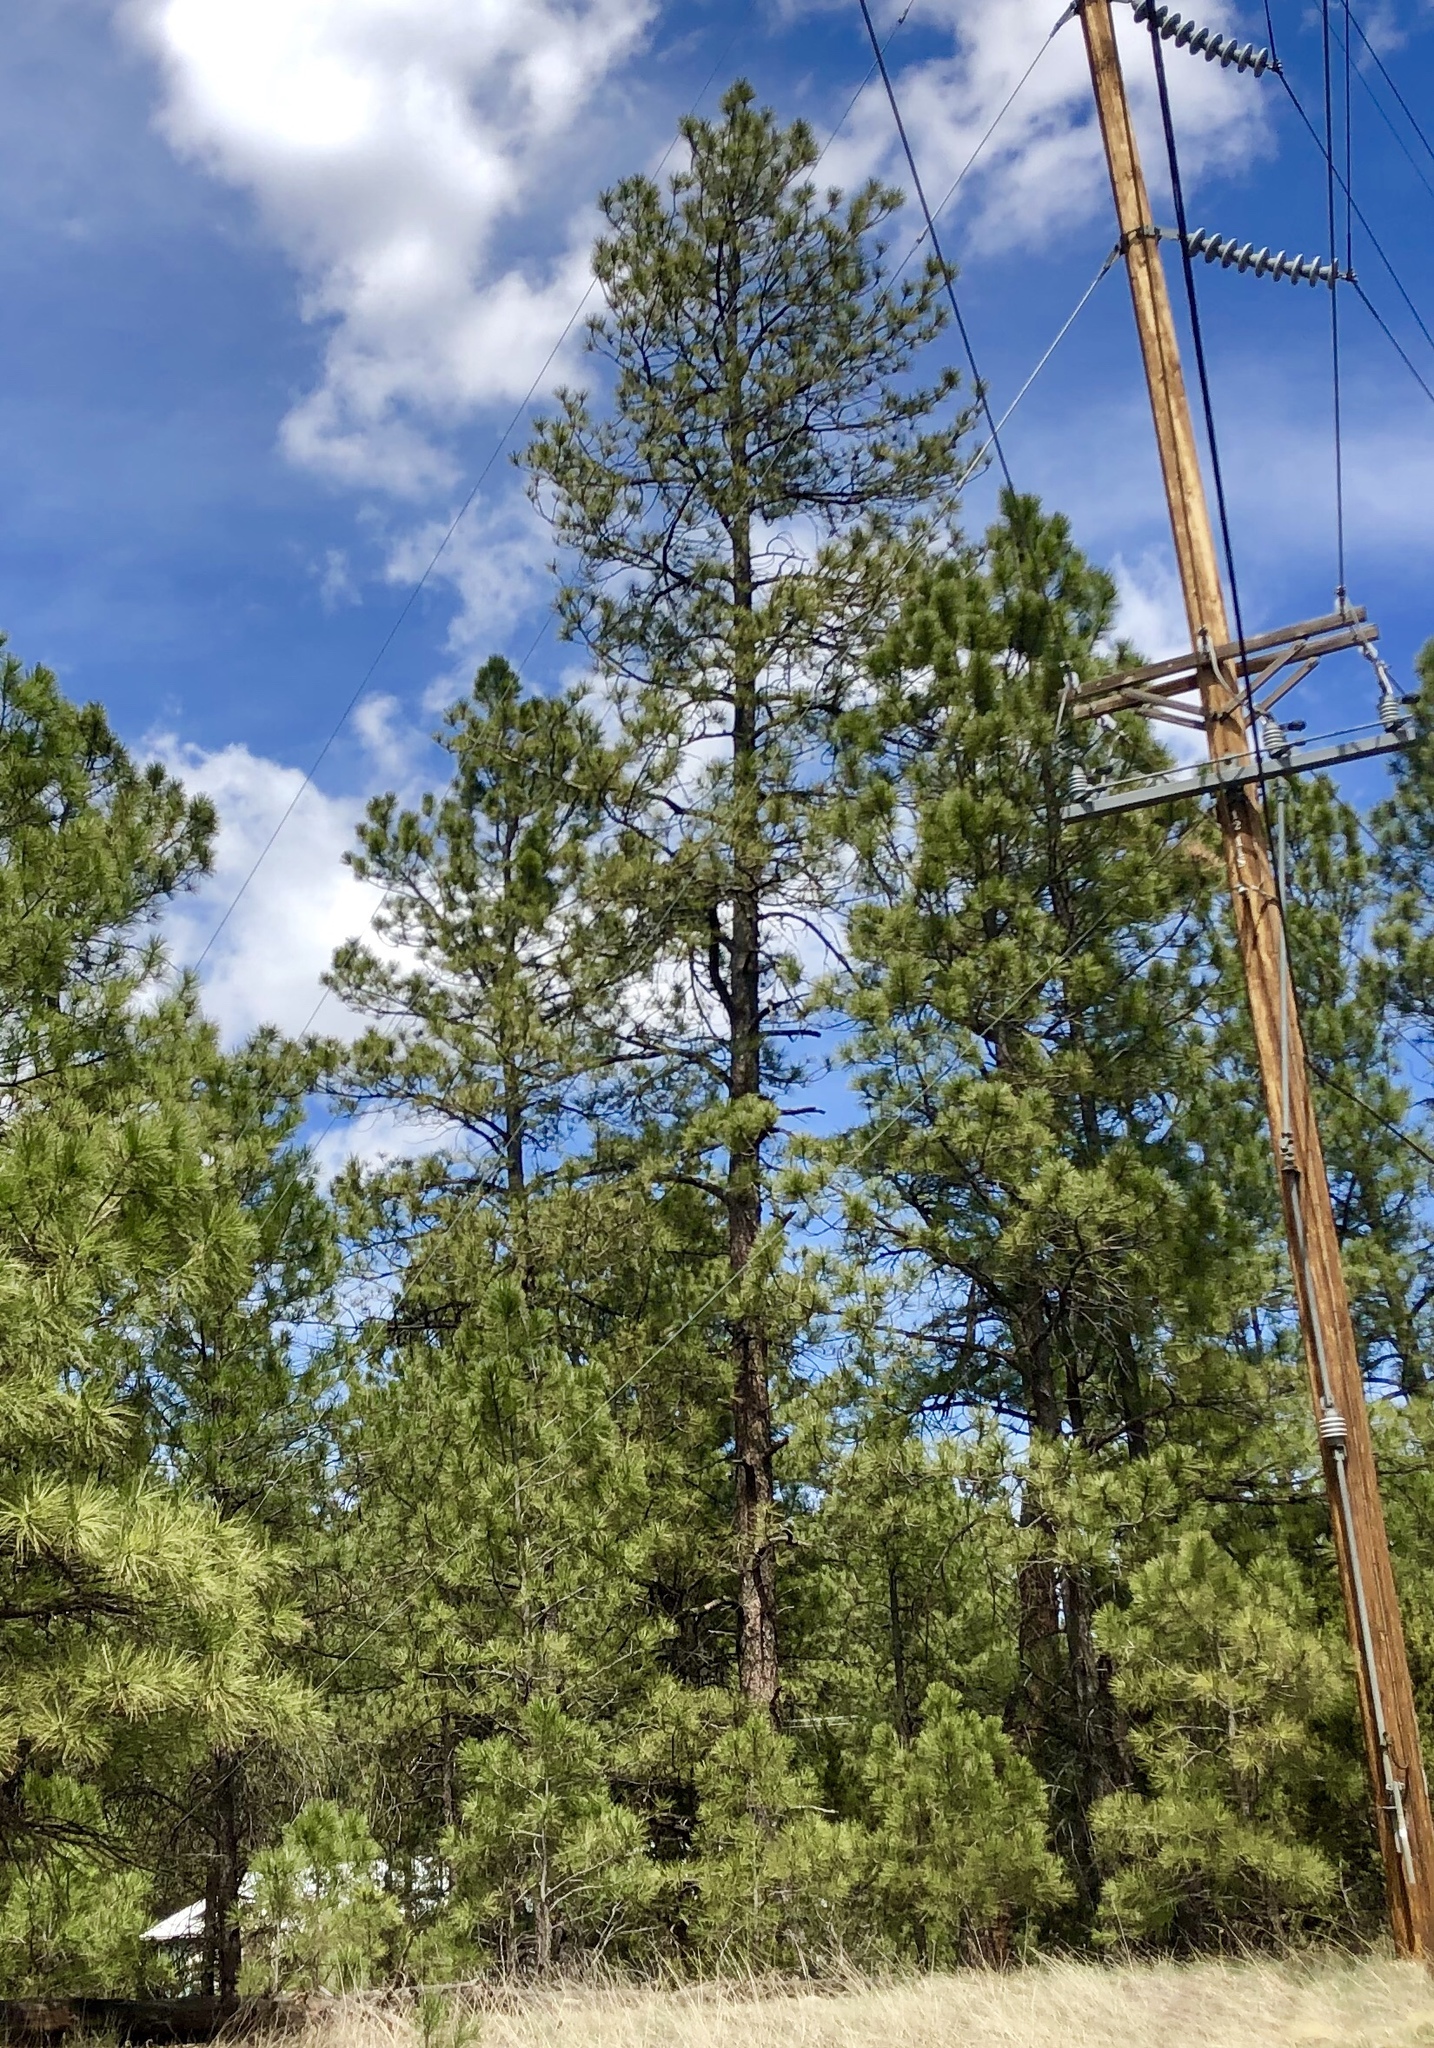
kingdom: Plantae
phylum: Tracheophyta
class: Pinopsida
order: Pinales
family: Pinaceae
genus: Pinus
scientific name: Pinus ponderosa
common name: Western yellow-pine
